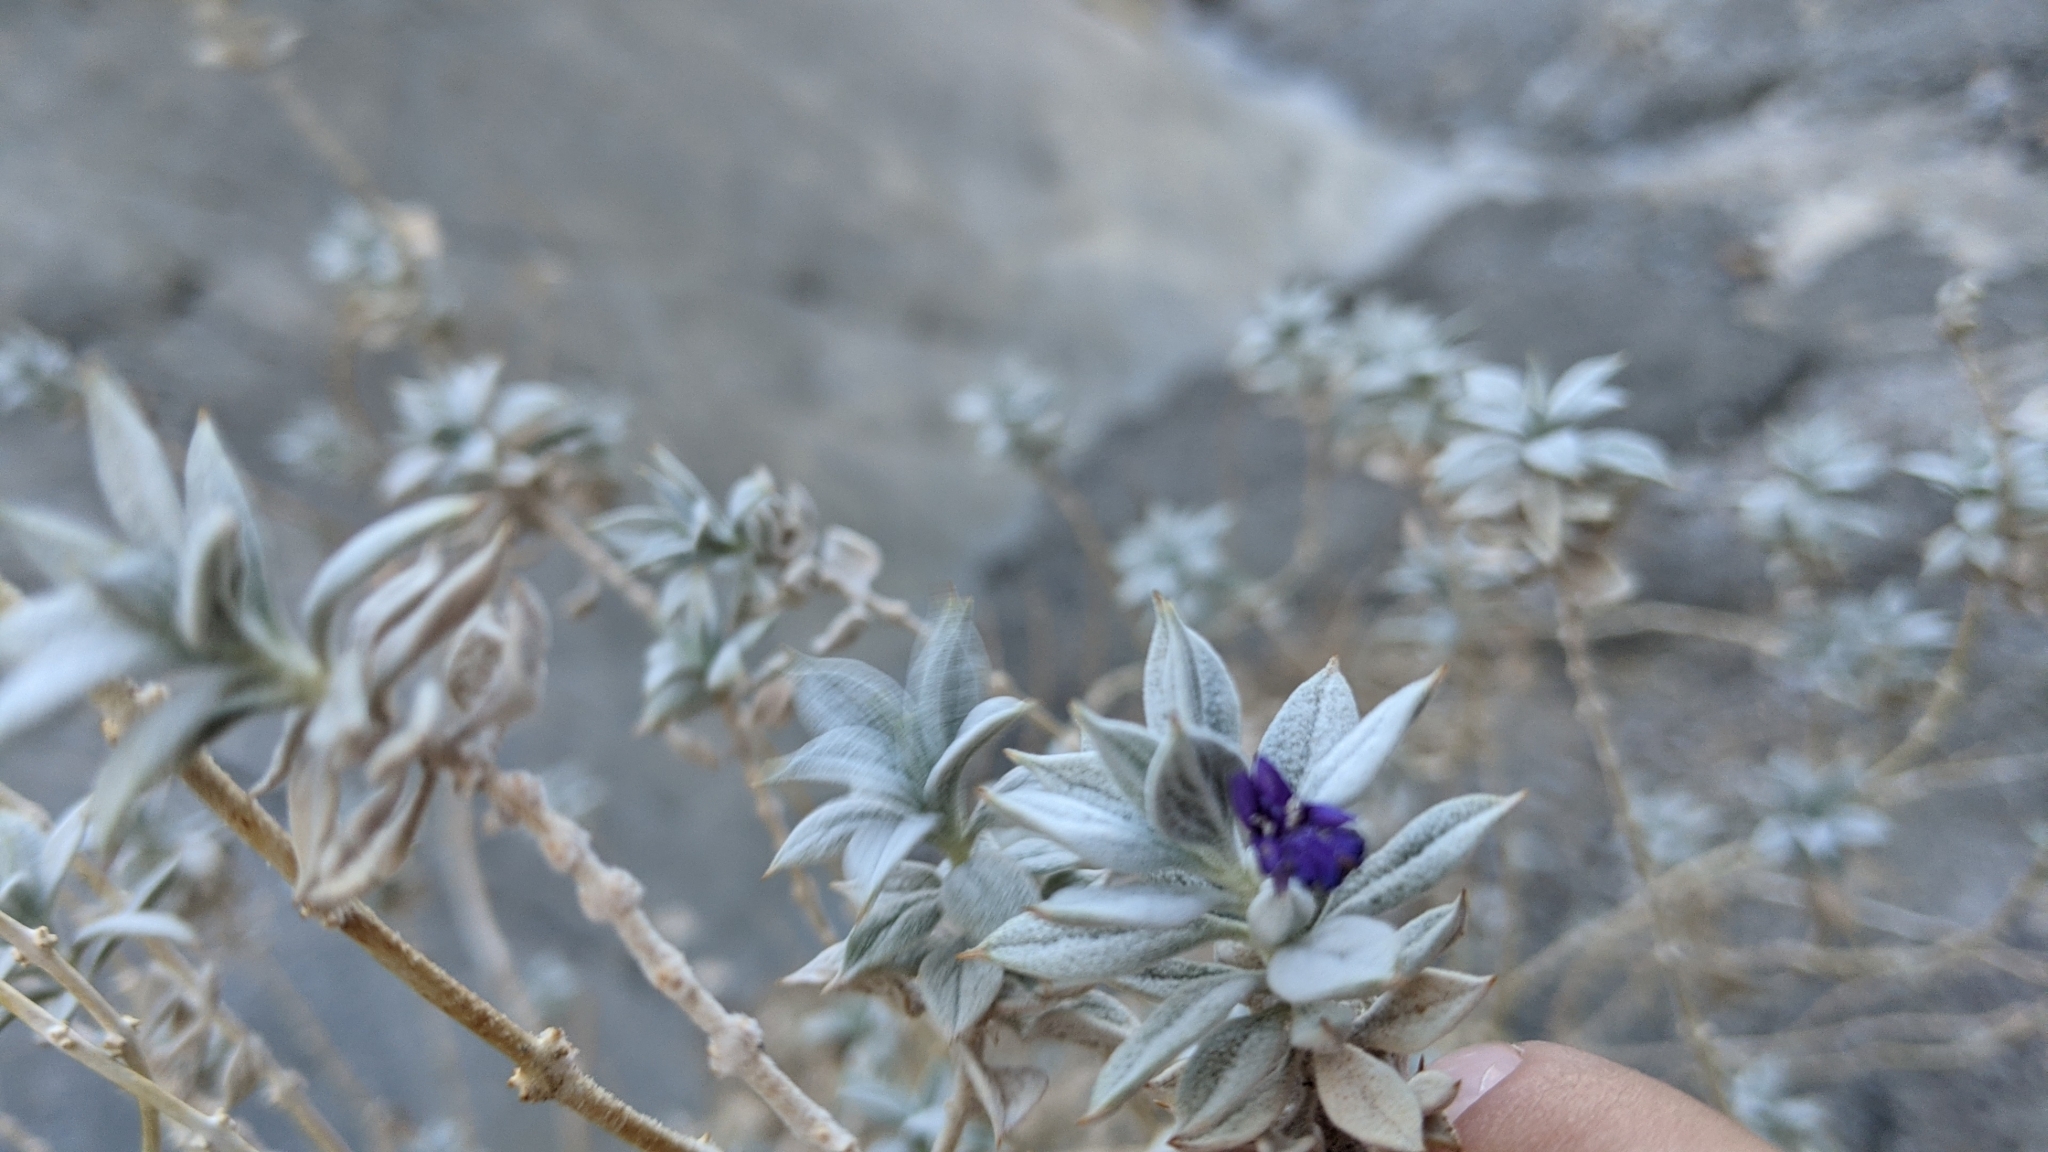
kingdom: Plantae
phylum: Tracheophyta
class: Magnoliopsida
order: Lamiales
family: Lamiaceae
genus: Salvia
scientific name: Salvia funerea
